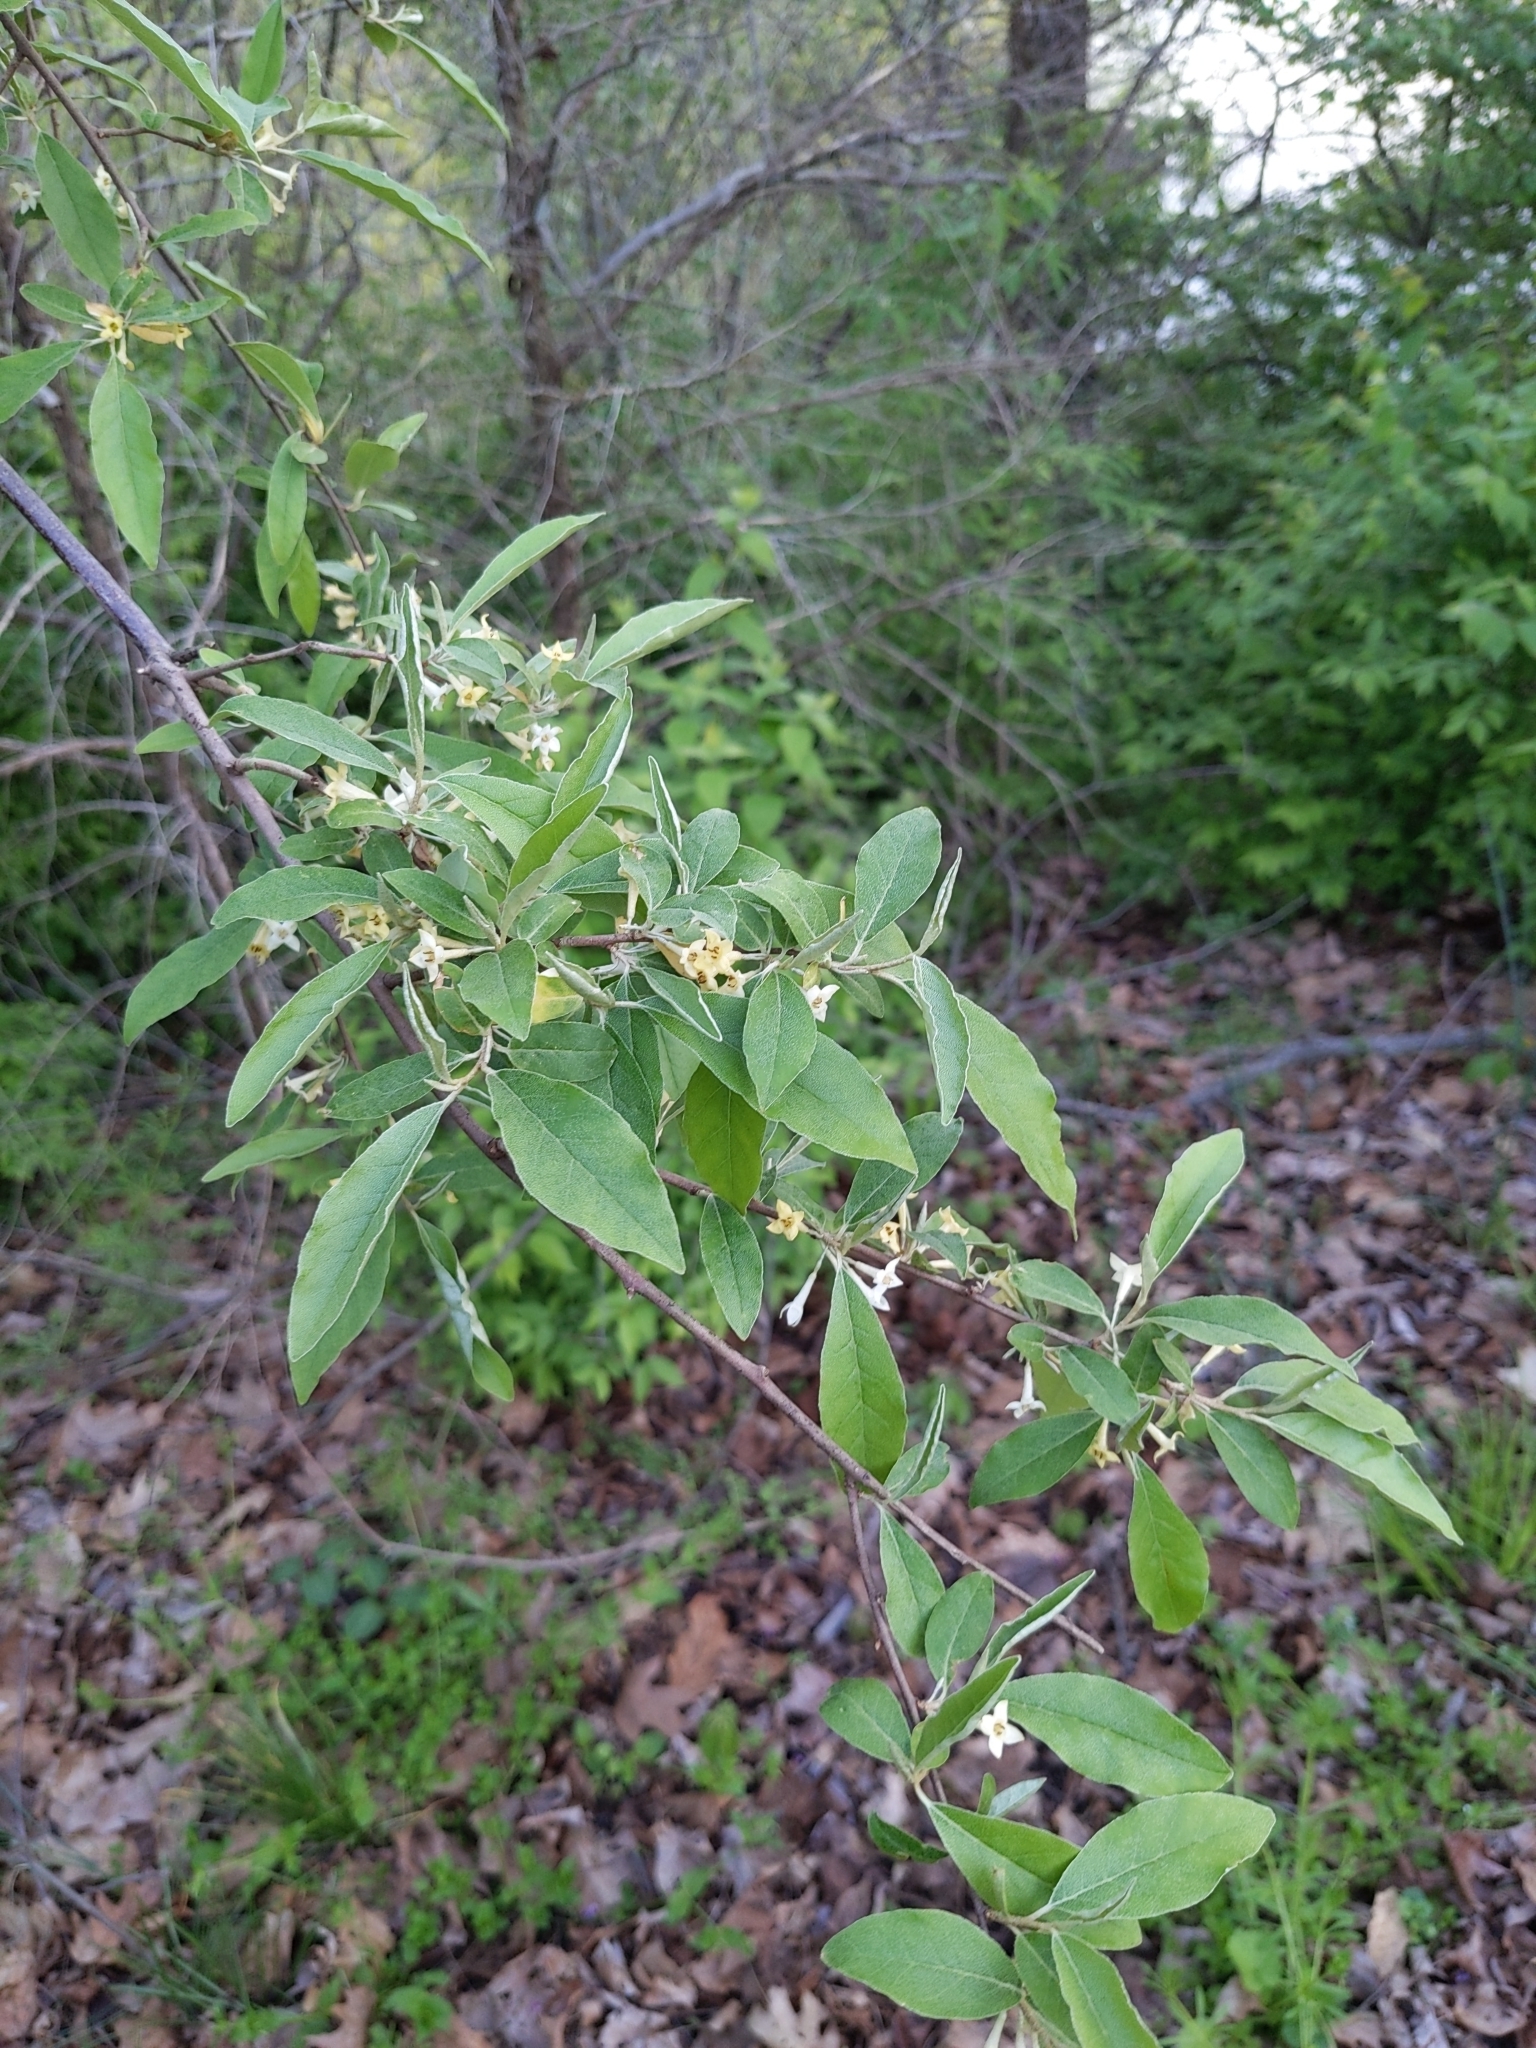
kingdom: Plantae
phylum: Tracheophyta
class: Magnoliopsida
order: Rosales
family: Elaeagnaceae
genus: Elaeagnus
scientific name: Elaeagnus umbellata
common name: Autumn olive
